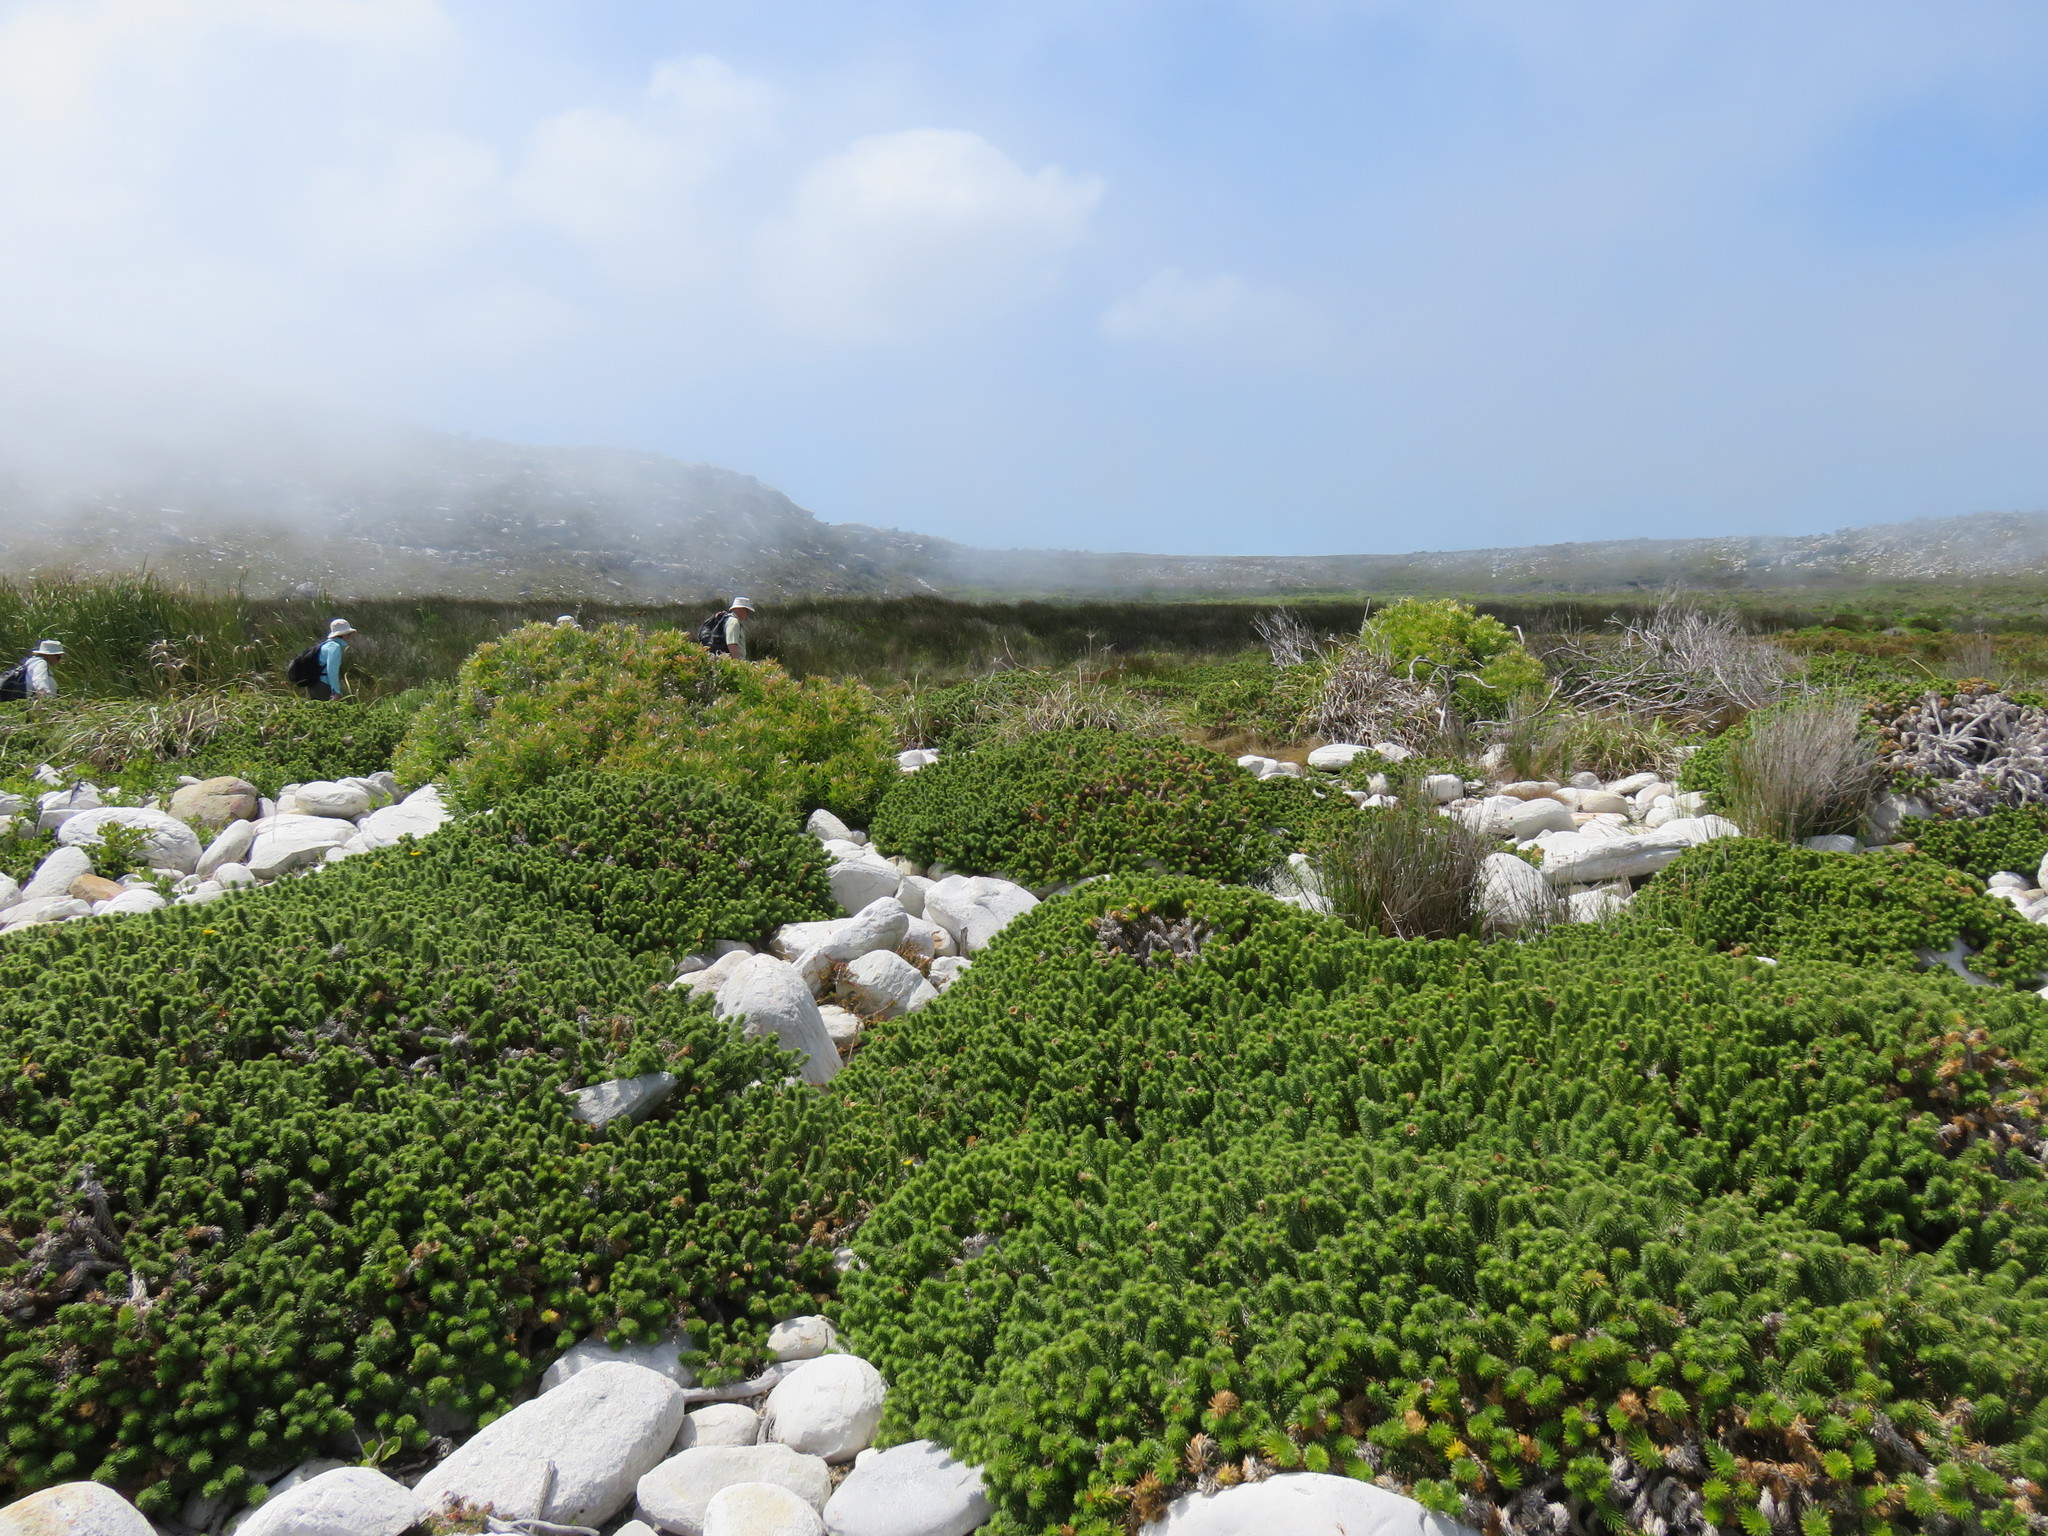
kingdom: Plantae
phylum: Tracheophyta
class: Magnoliopsida
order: Asterales
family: Asteraceae
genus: Cullumia
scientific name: Cullumia squarrosa
